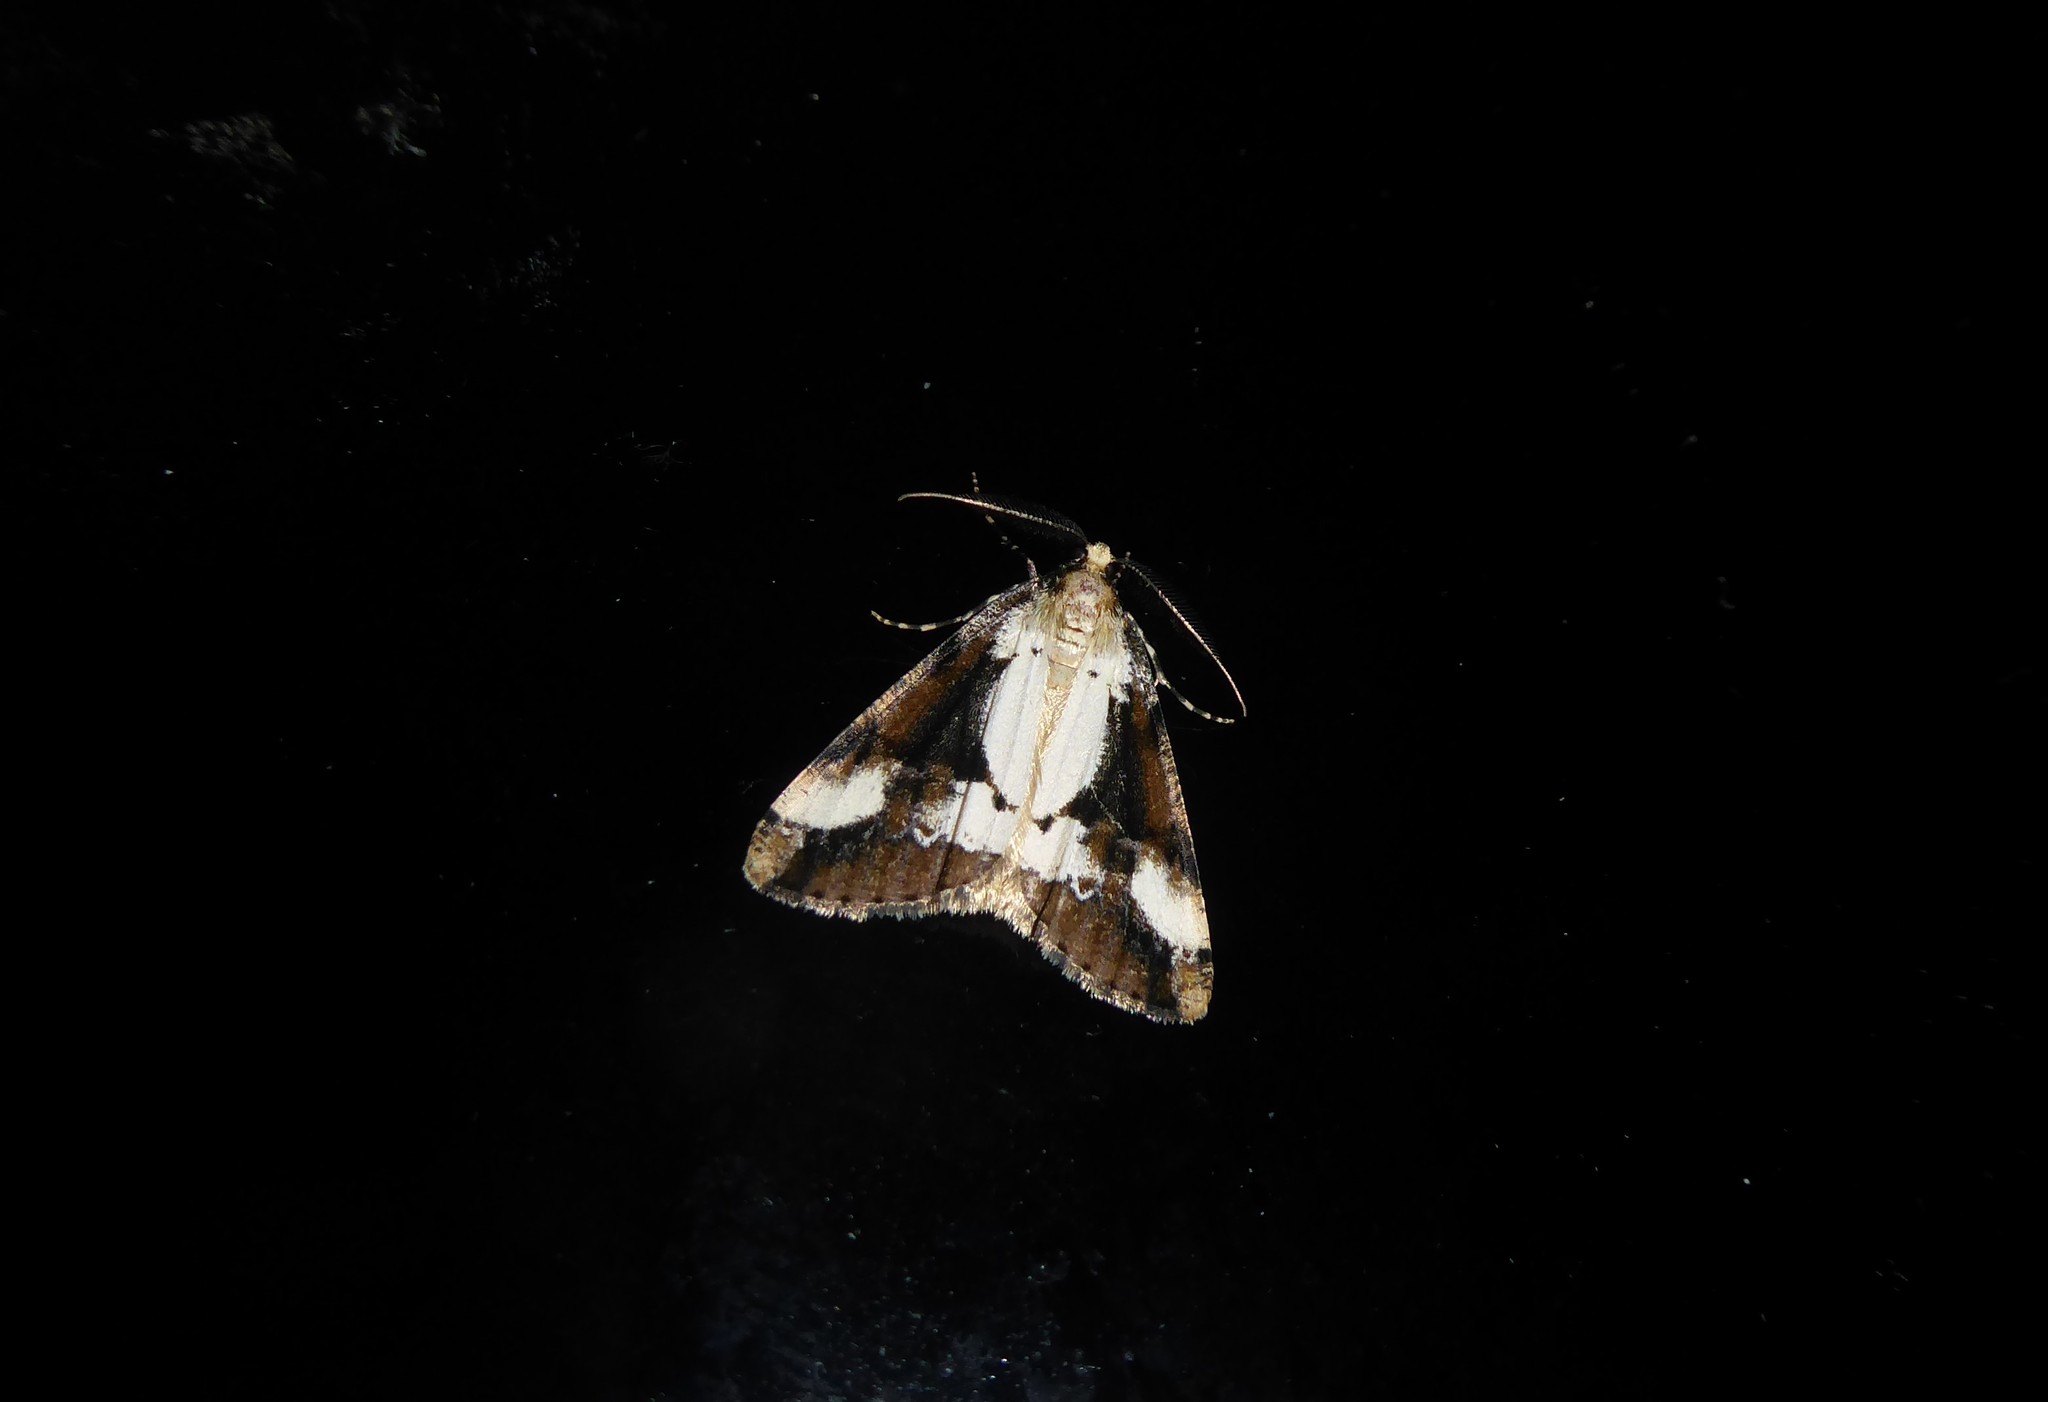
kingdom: Animalia
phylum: Arthropoda
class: Insecta
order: Lepidoptera
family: Geometridae
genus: Pseudocoremia
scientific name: Pseudocoremia leucelaea
